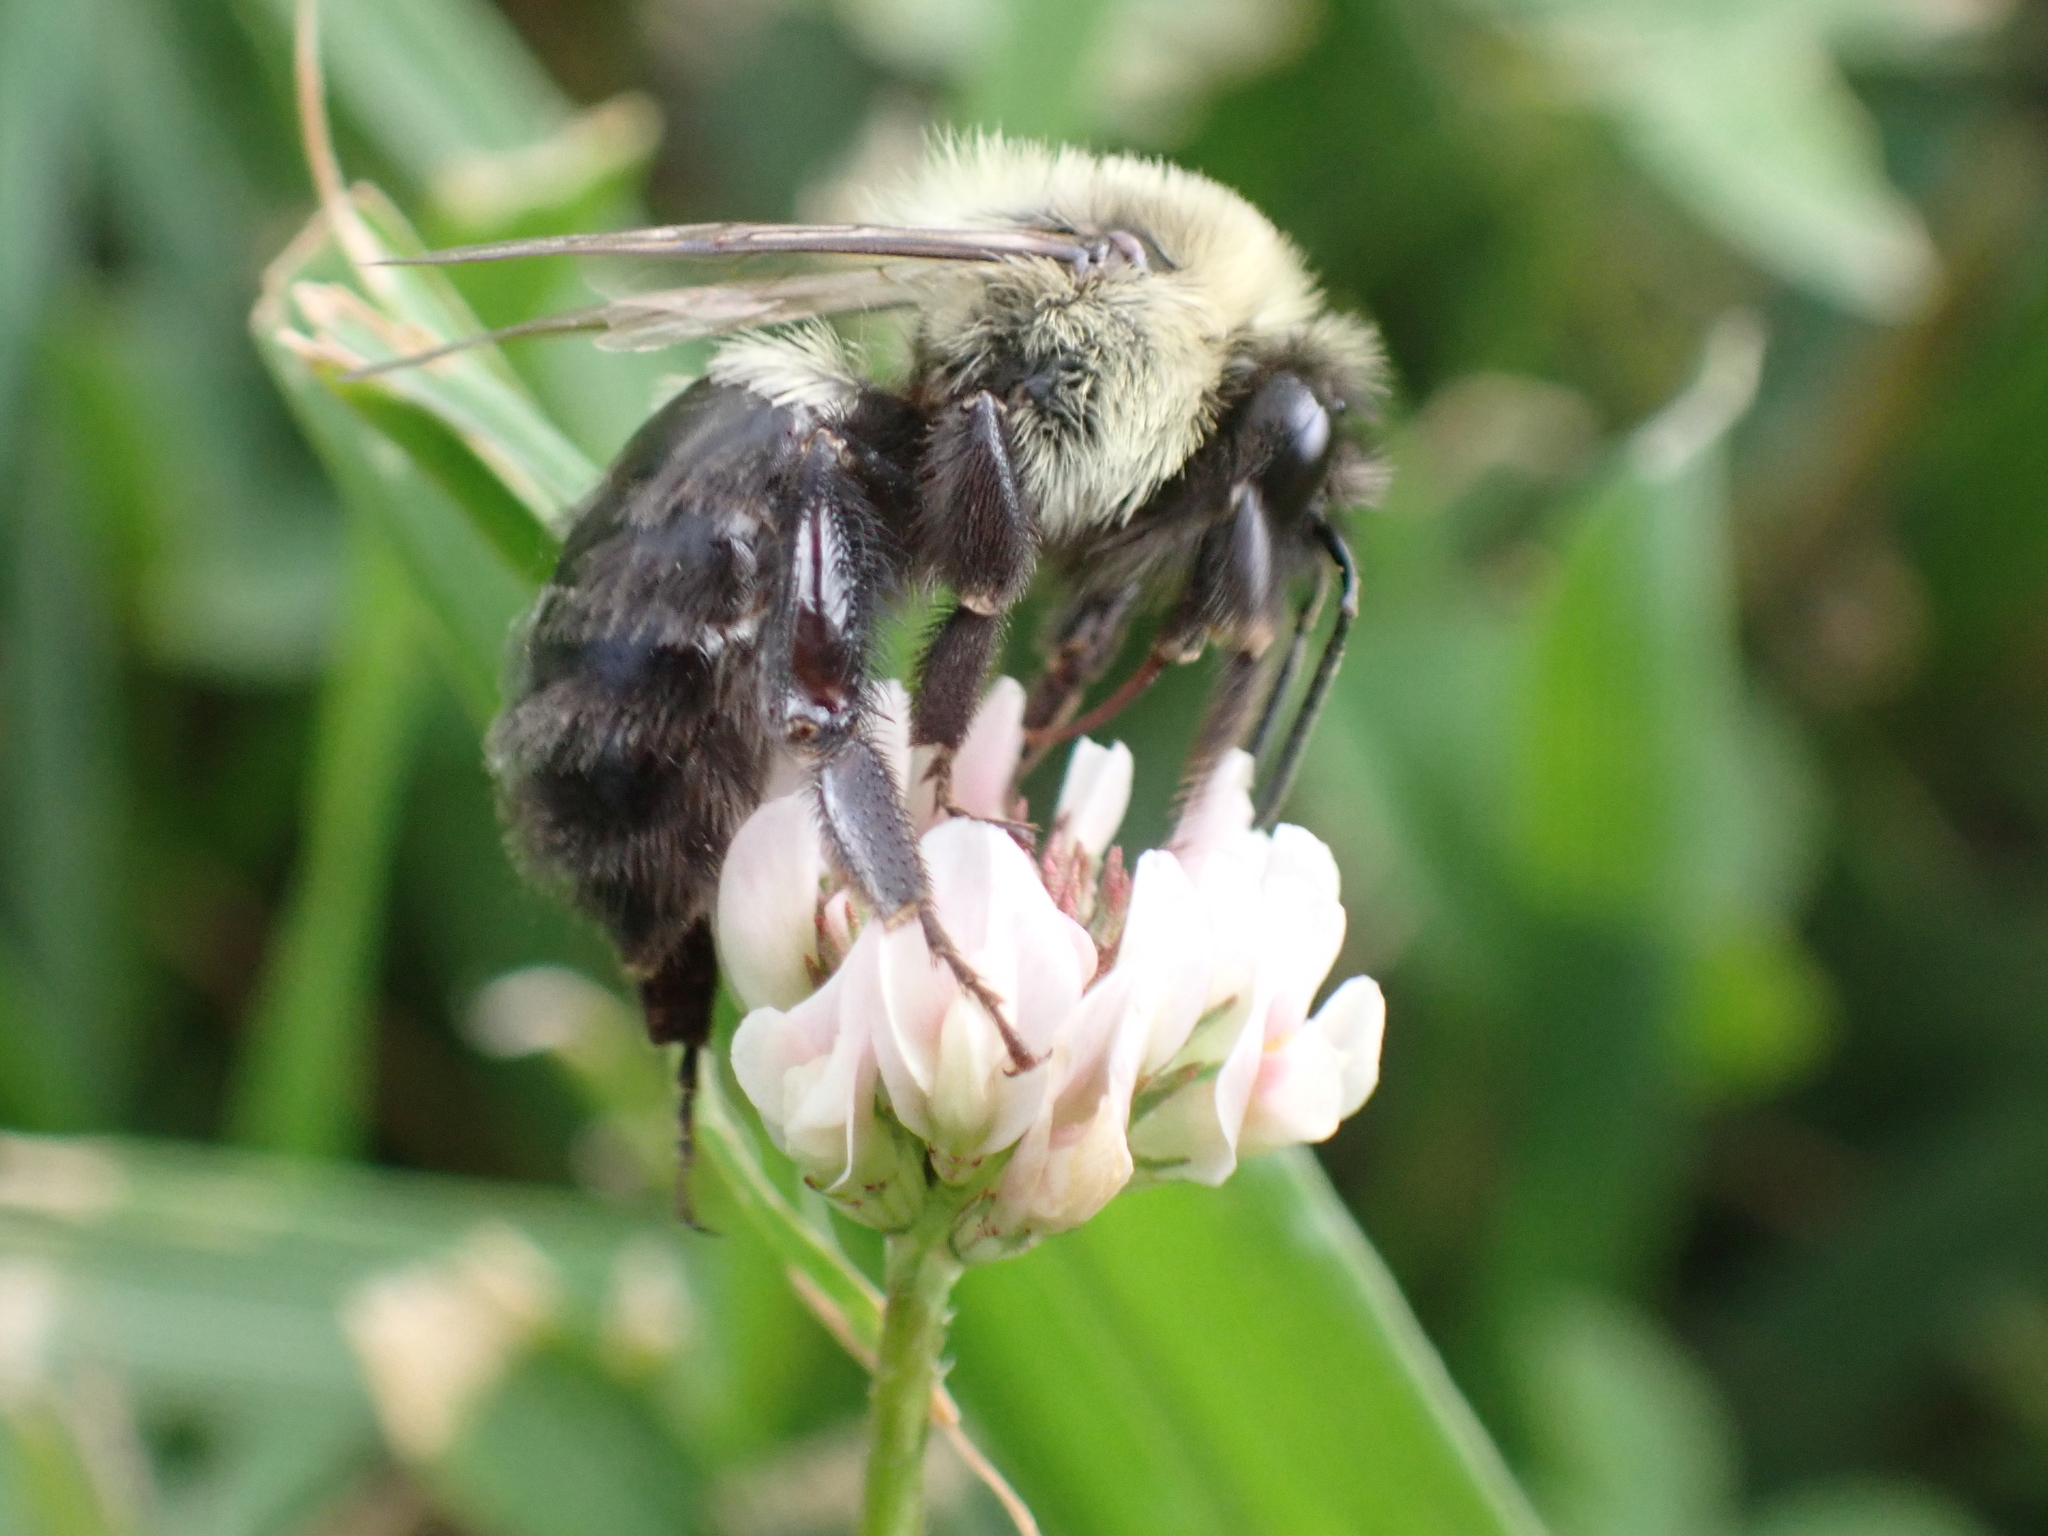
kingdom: Animalia
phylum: Arthropoda
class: Insecta
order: Hymenoptera
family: Apidae
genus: Bombus
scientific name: Bombus impatiens
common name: Common eastern bumble bee
